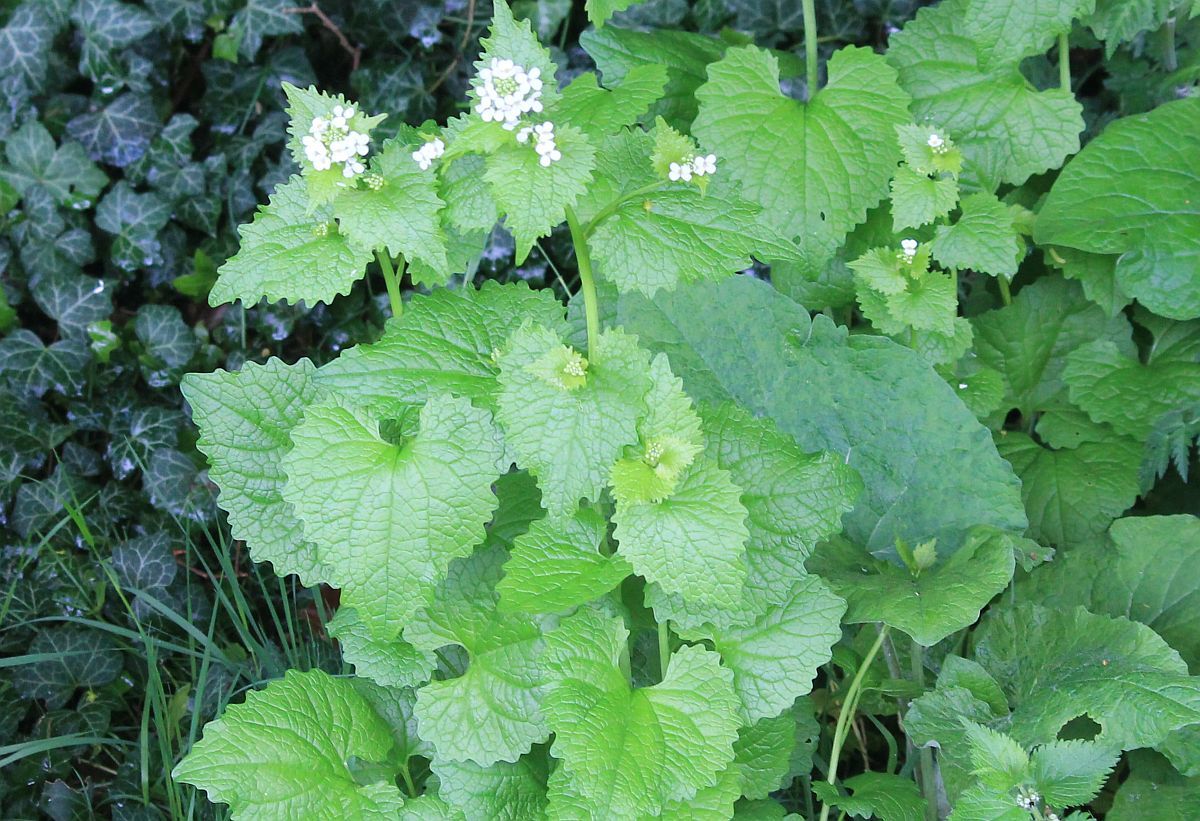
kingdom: Plantae
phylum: Tracheophyta
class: Magnoliopsida
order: Brassicales
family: Brassicaceae
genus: Alliaria
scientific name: Alliaria petiolata
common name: Garlic mustard
